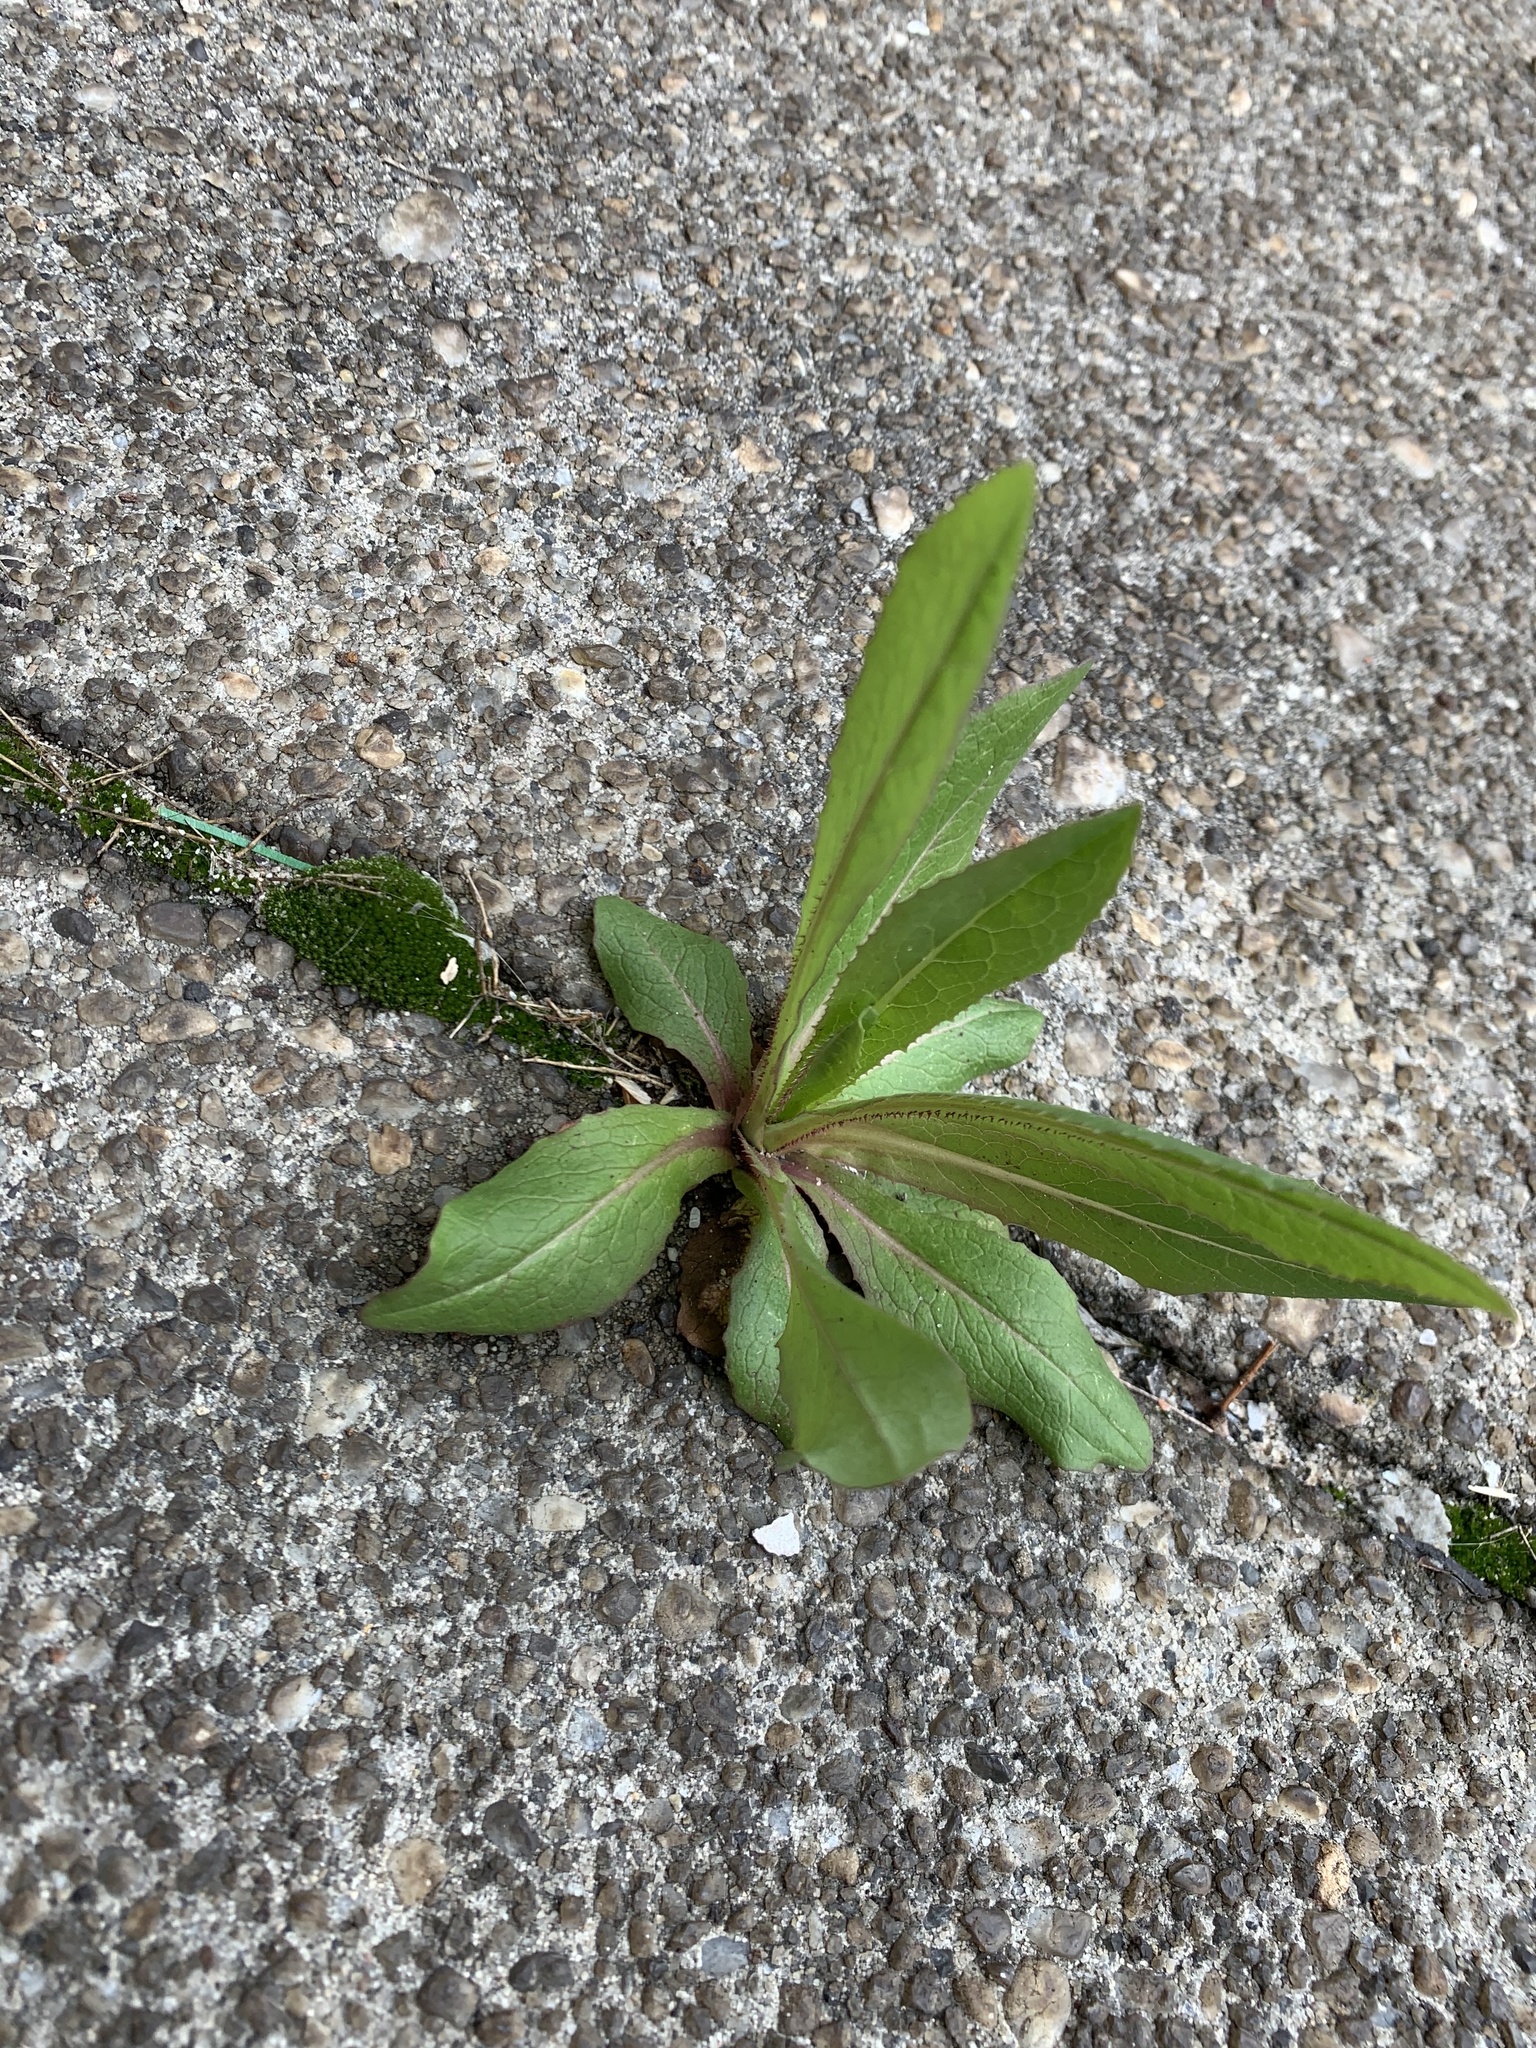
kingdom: Plantae
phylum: Tracheophyta
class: Magnoliopsida
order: Asterales
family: Asteraceae
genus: Lactuca
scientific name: Lactuca serriola
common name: Prickly lettuce
